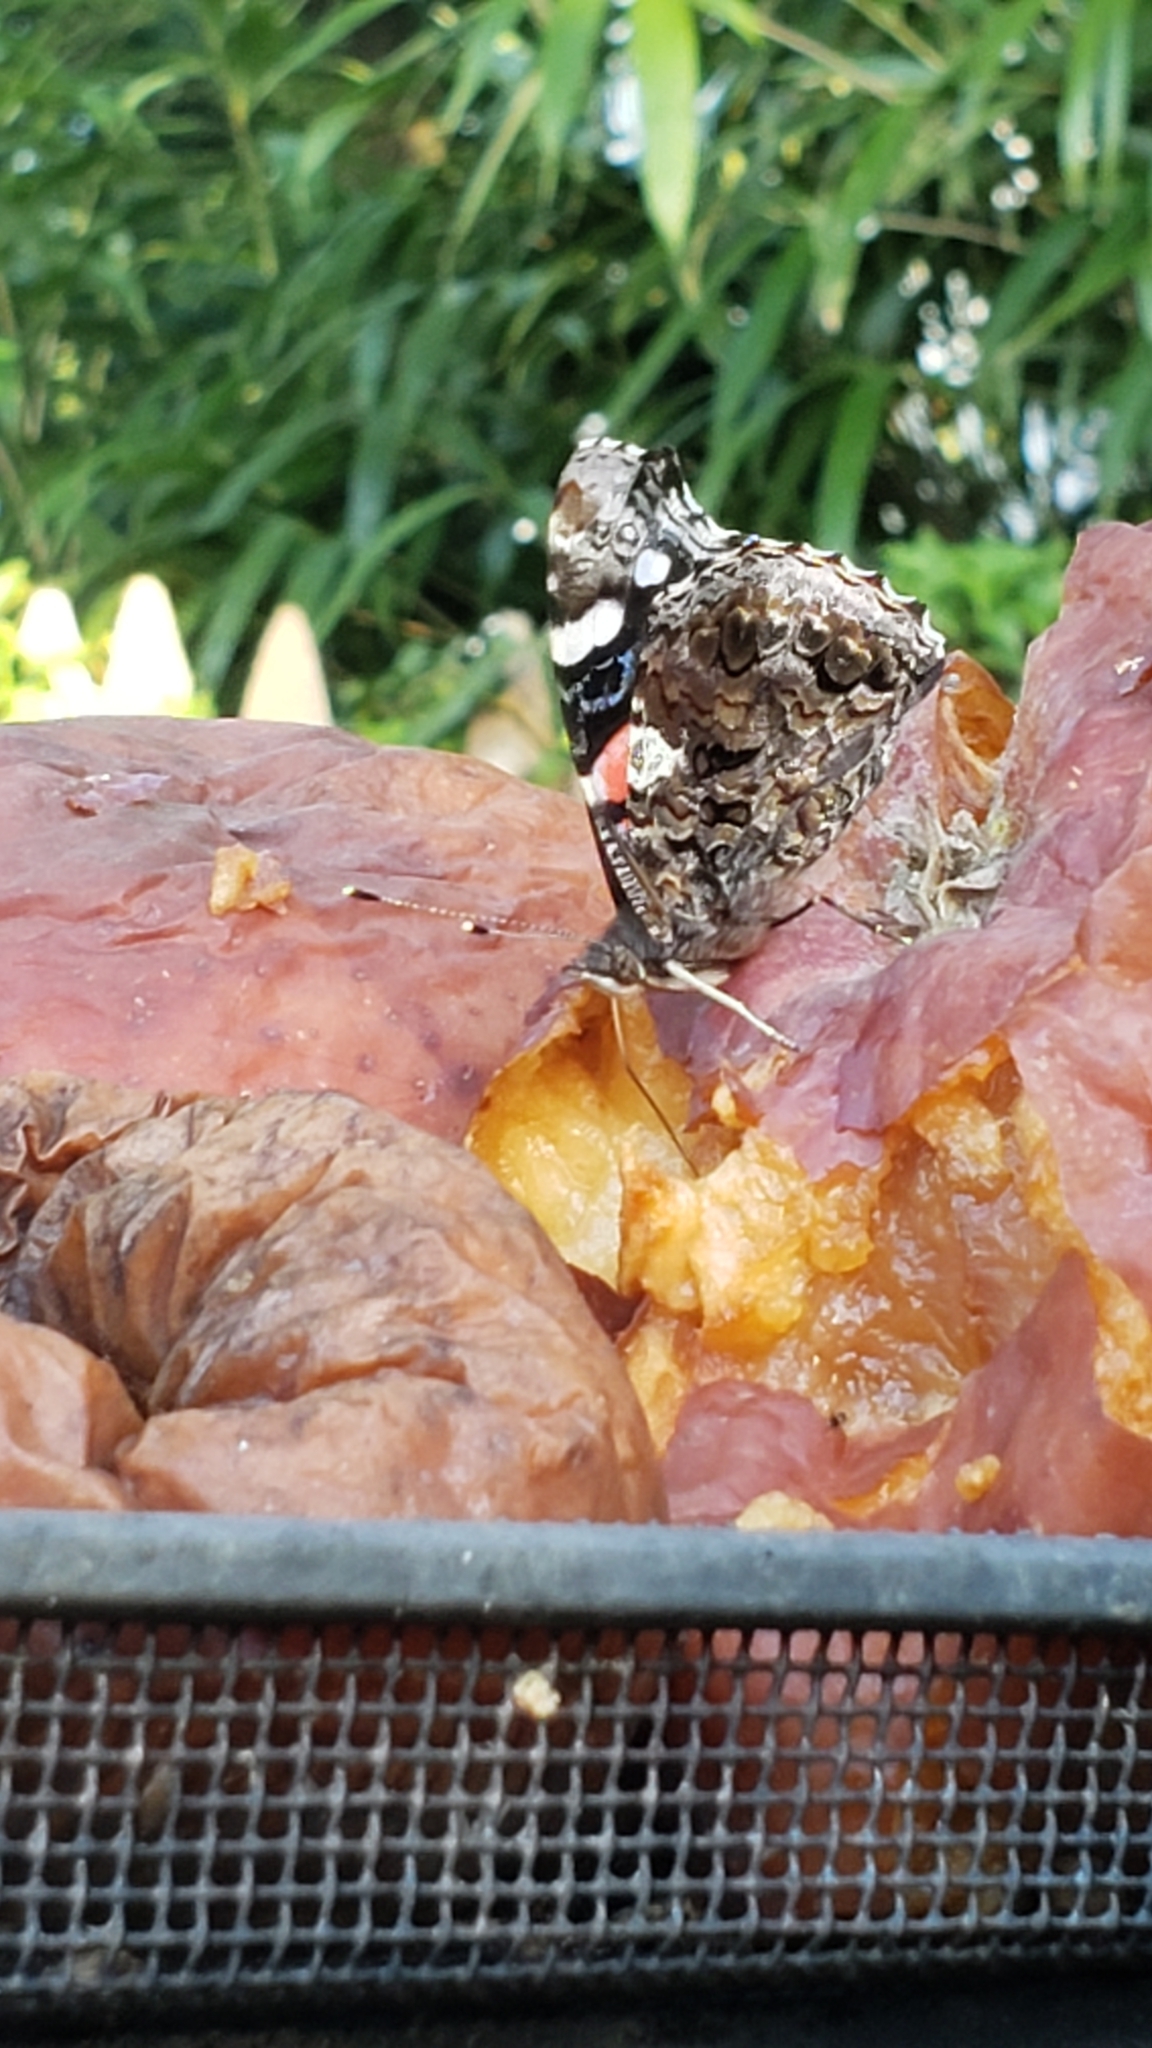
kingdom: Animalia
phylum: Arthropoda
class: Insecta
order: Lepidoptera
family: Nymphalidae
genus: Vanessa
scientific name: Vanessa atalanta
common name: Red admiral
